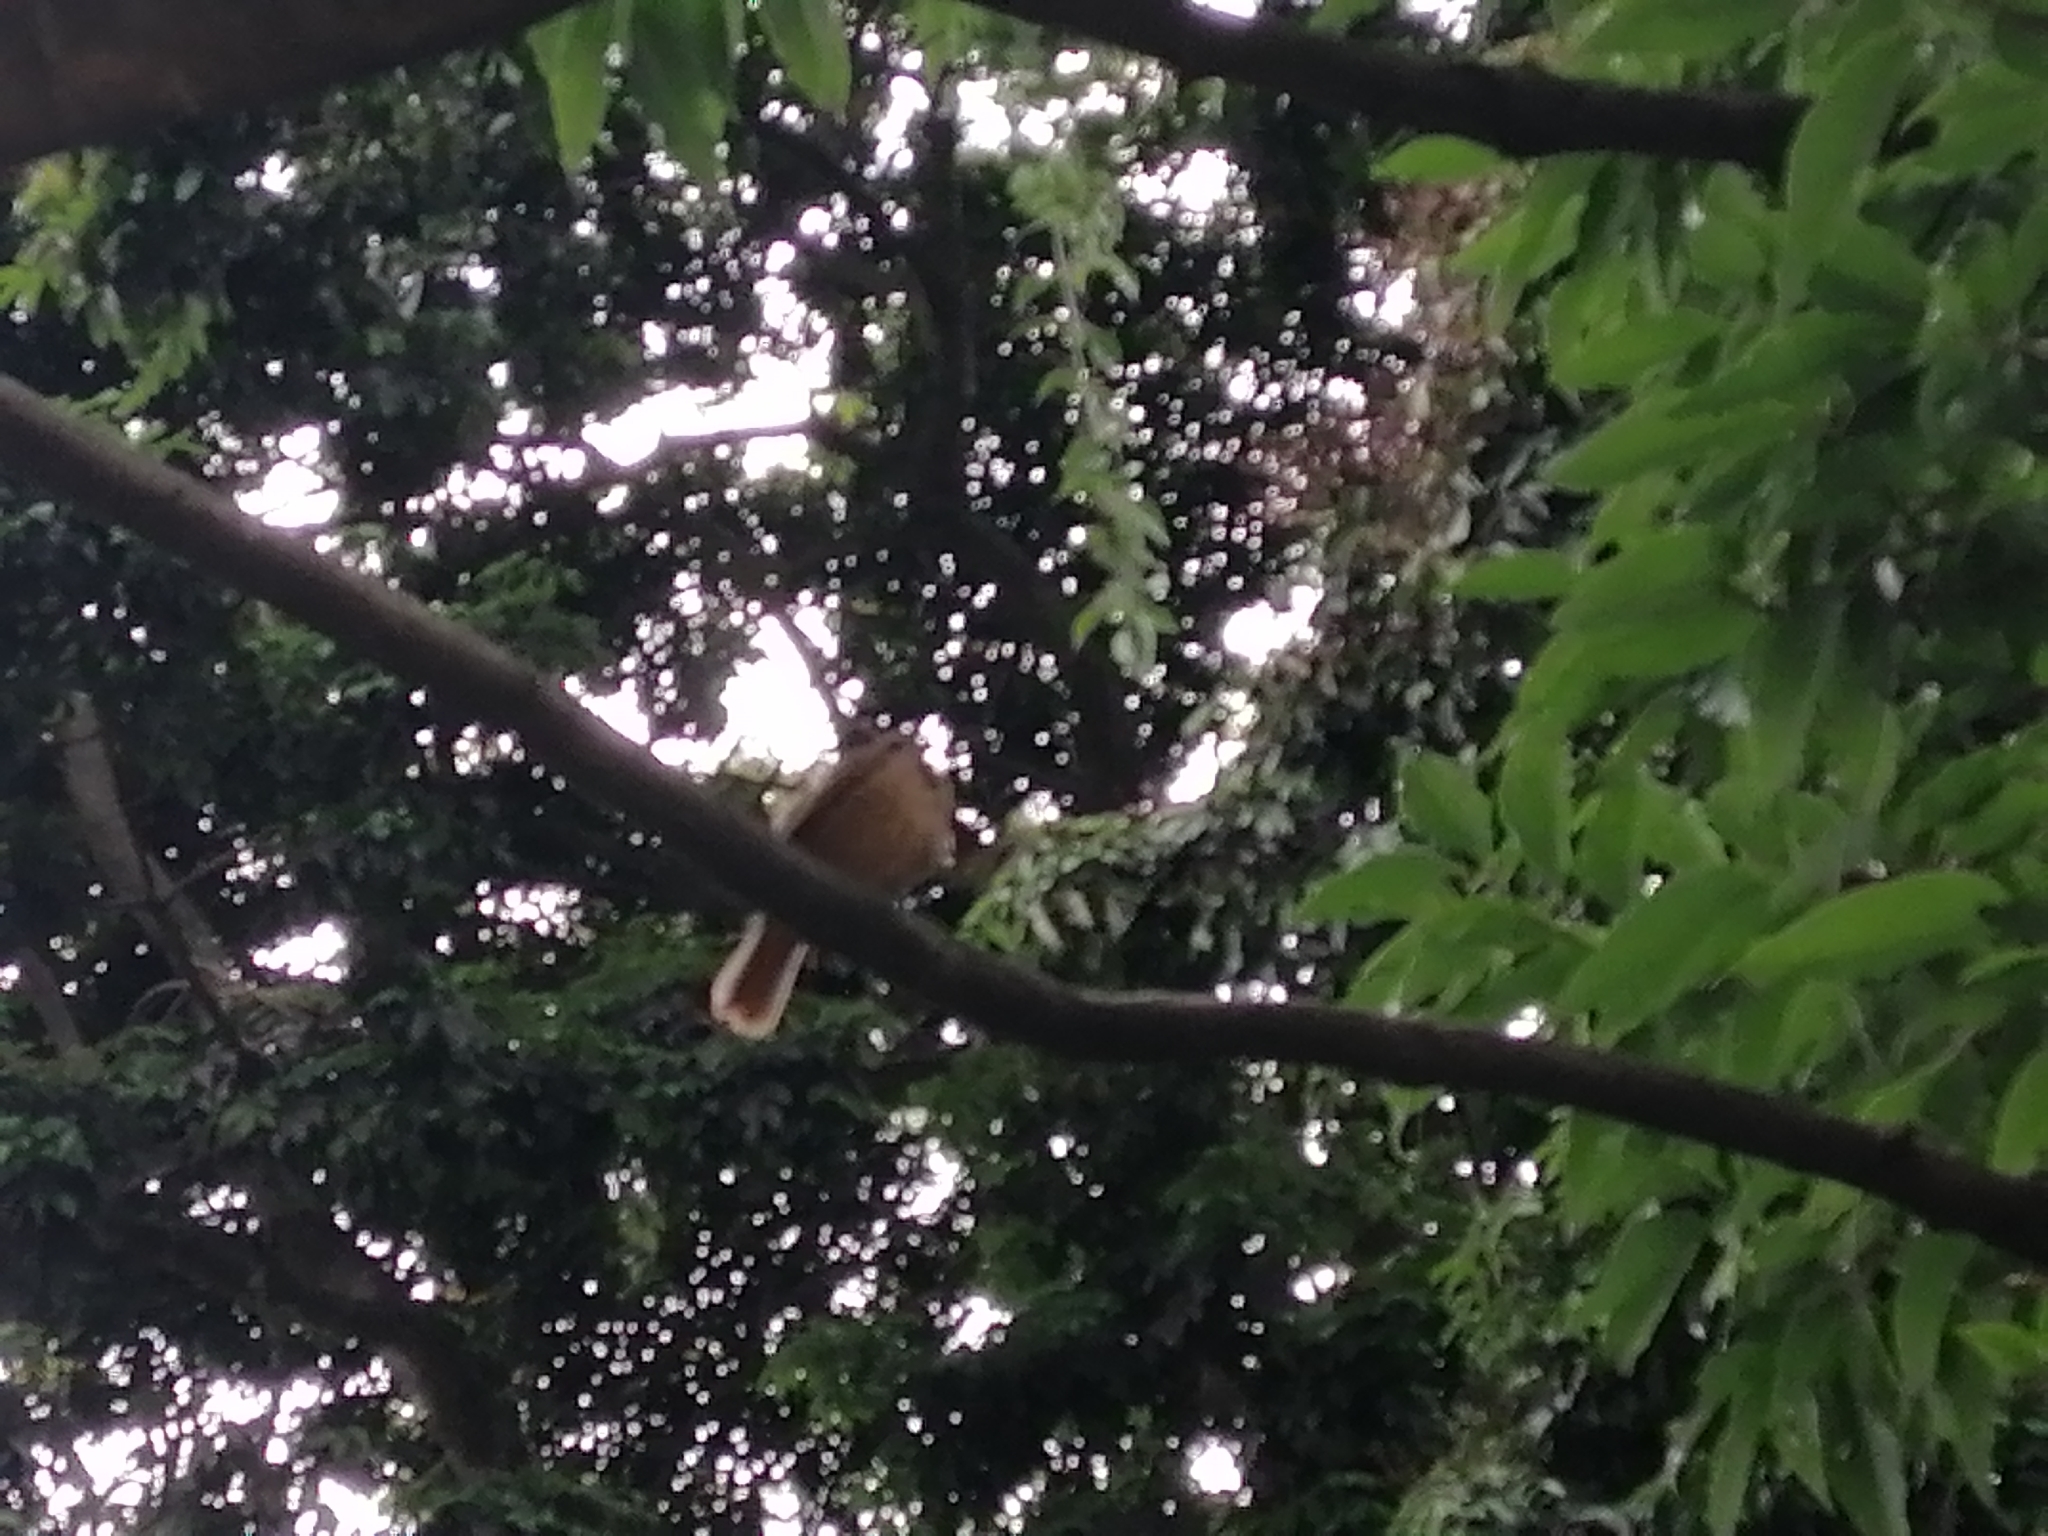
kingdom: Animalia
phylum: Chordata
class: Aves
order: Passeriformes
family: Turdidae
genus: Turdus
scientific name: Turdus grayi
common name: Clay-colored thrush
